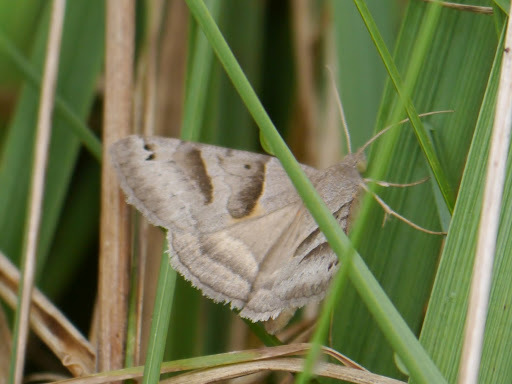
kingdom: Animalia
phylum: Arthropoda
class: Insecta
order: Lepidoptera
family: Erebidae
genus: Caenurgina
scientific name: Caenurgina erechtea
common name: Forage looper moth
